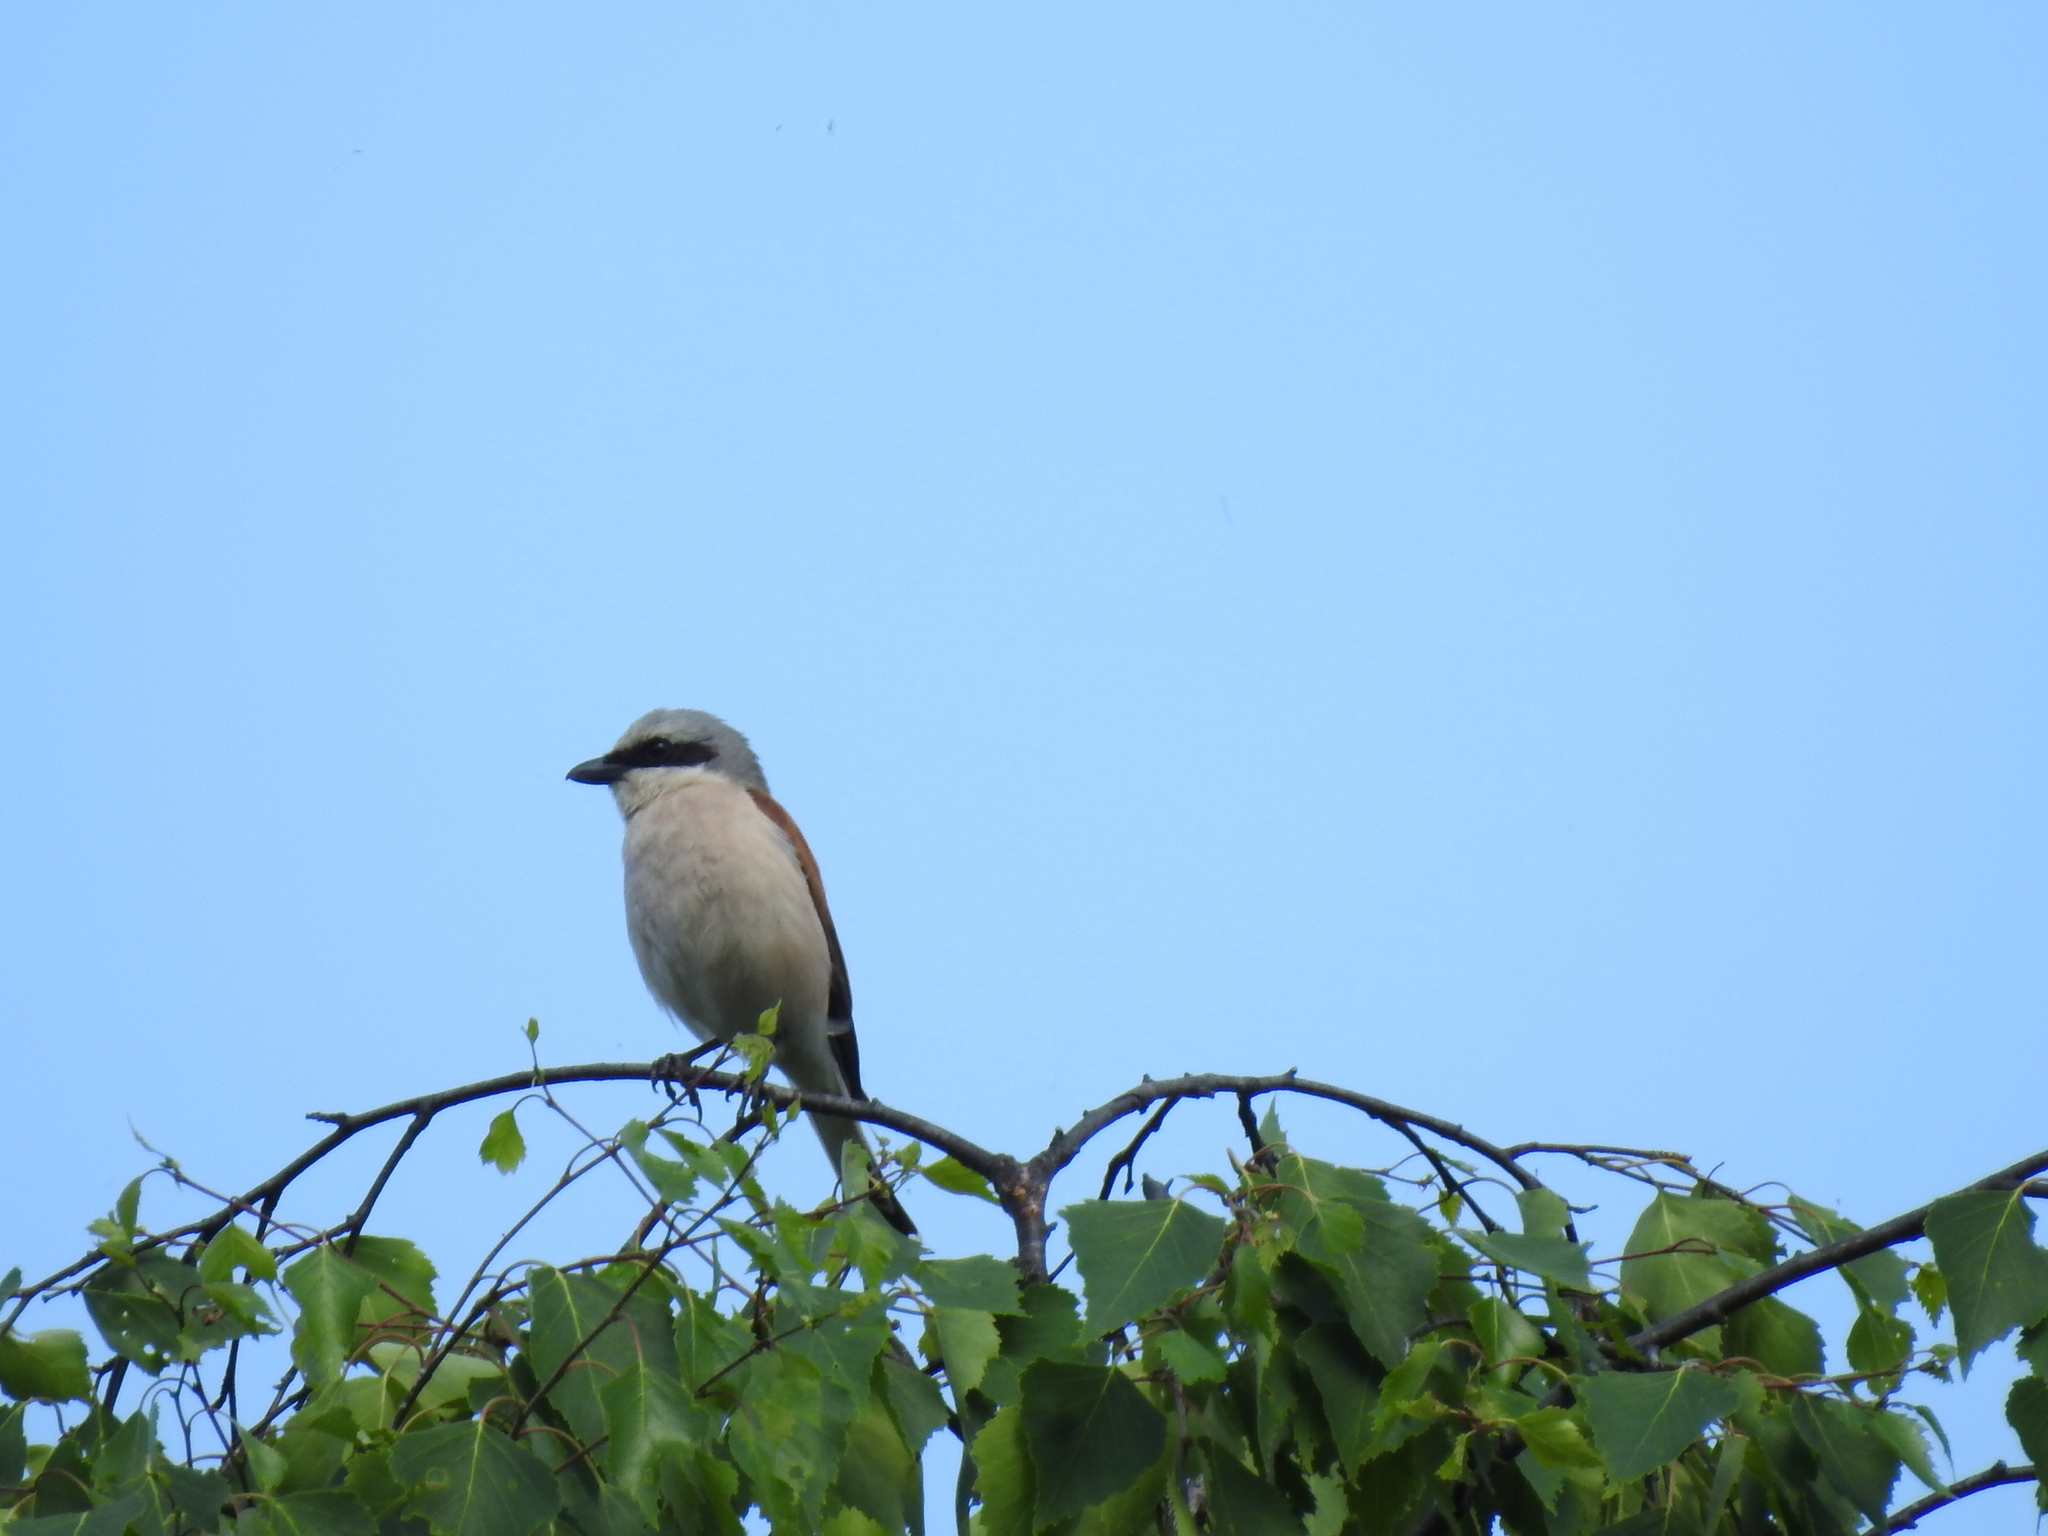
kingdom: Animalia
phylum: Chordata
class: Aves
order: Passeriformes
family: Laniidae
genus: Lanius
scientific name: Lanius collurio
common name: Red-backed shrike
